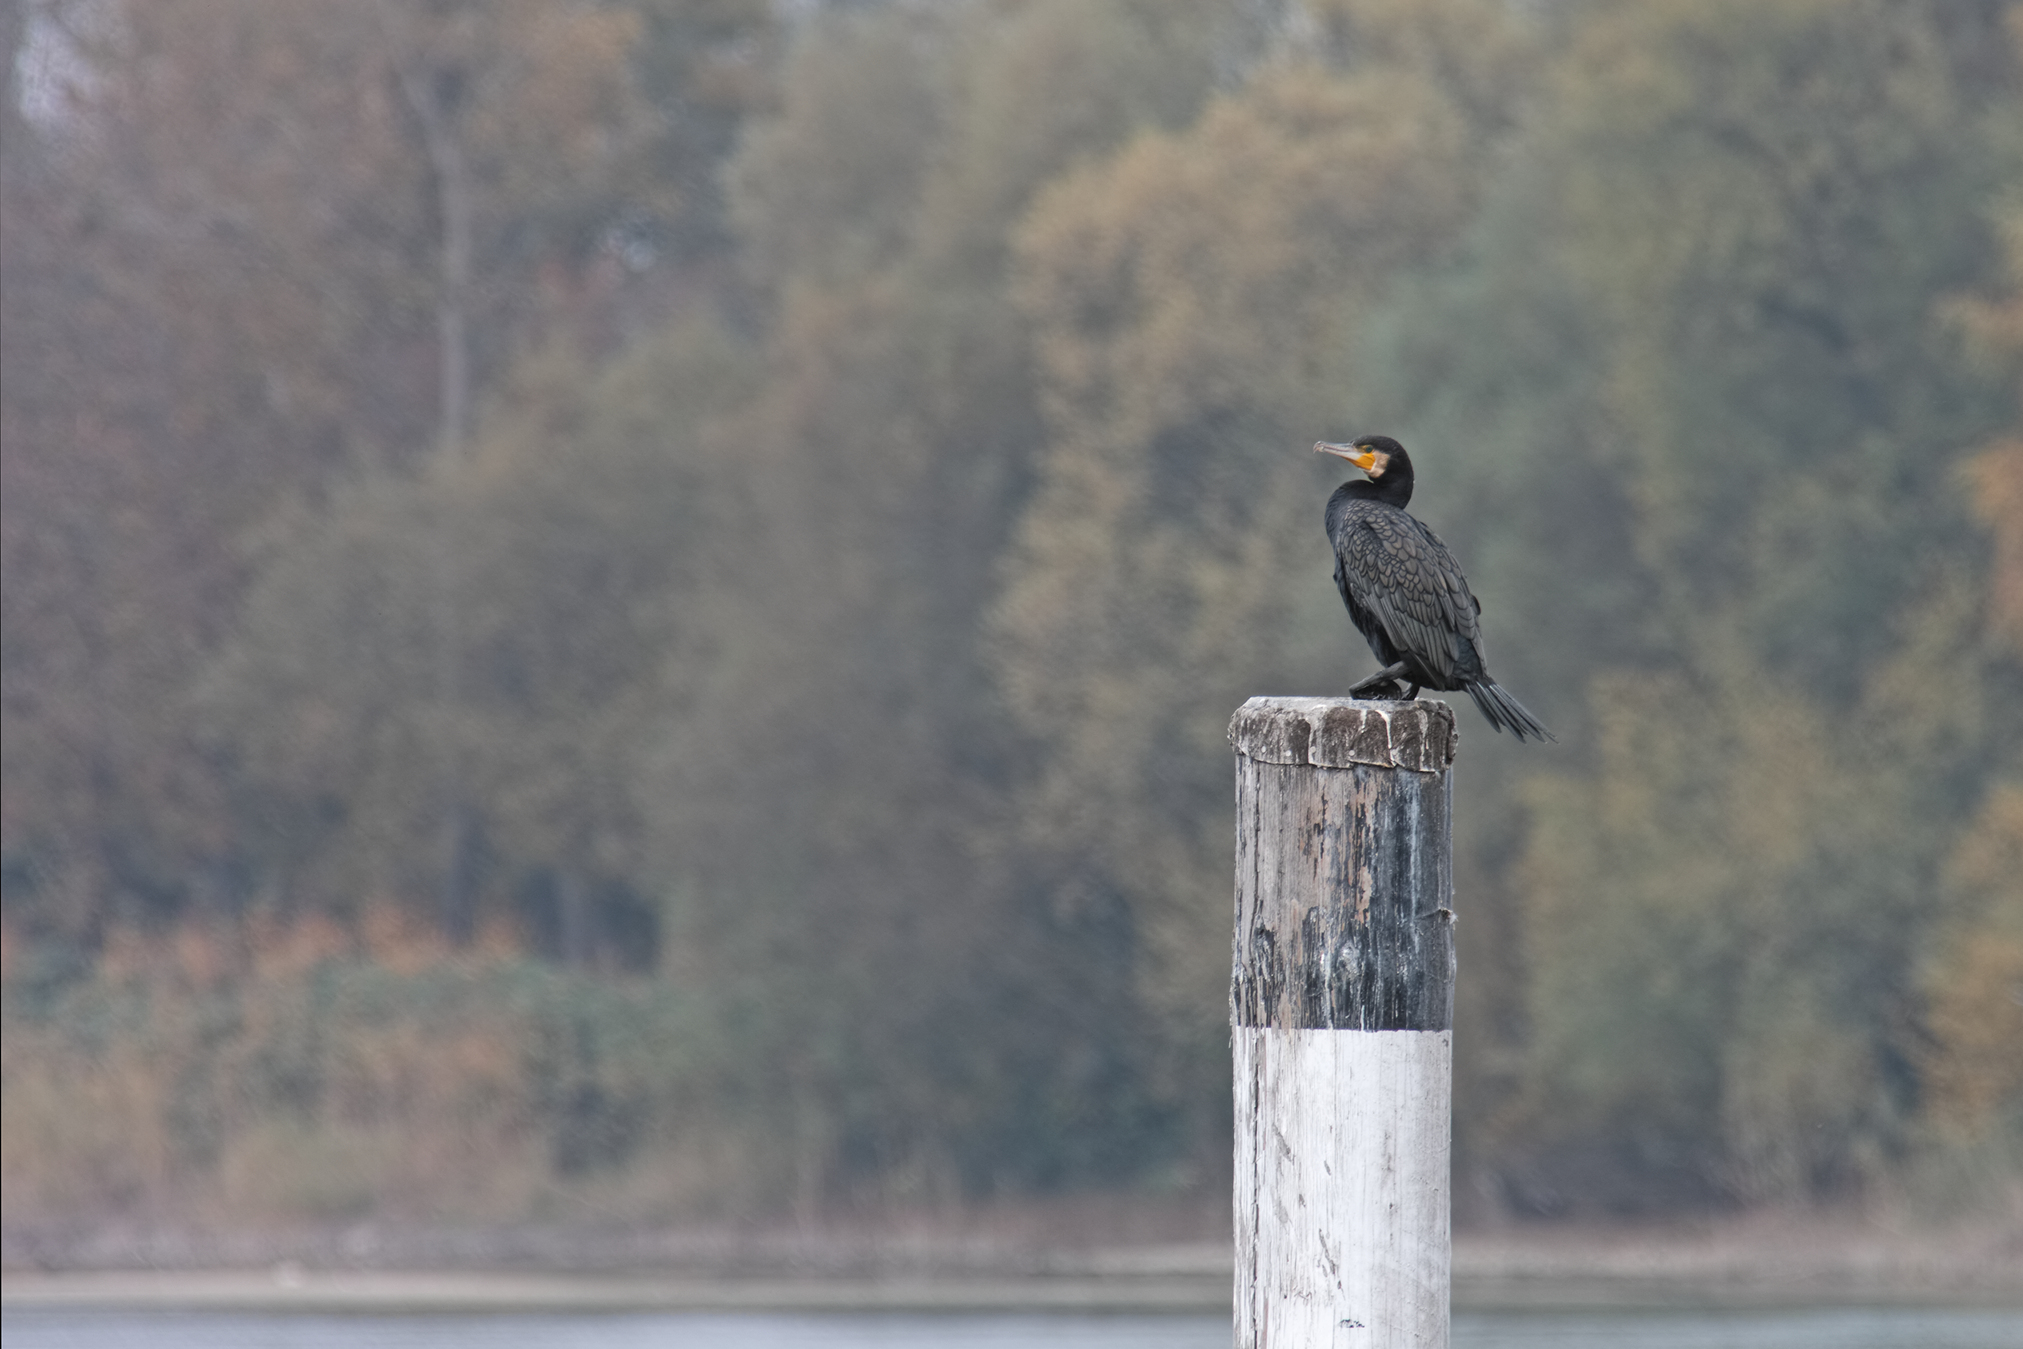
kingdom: Animalia
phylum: Chordata
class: Aves
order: Suliformes
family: Phalacrocoracidae
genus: Phalacrocorax
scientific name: Phalacrocorax carbo
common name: Great cormorant
